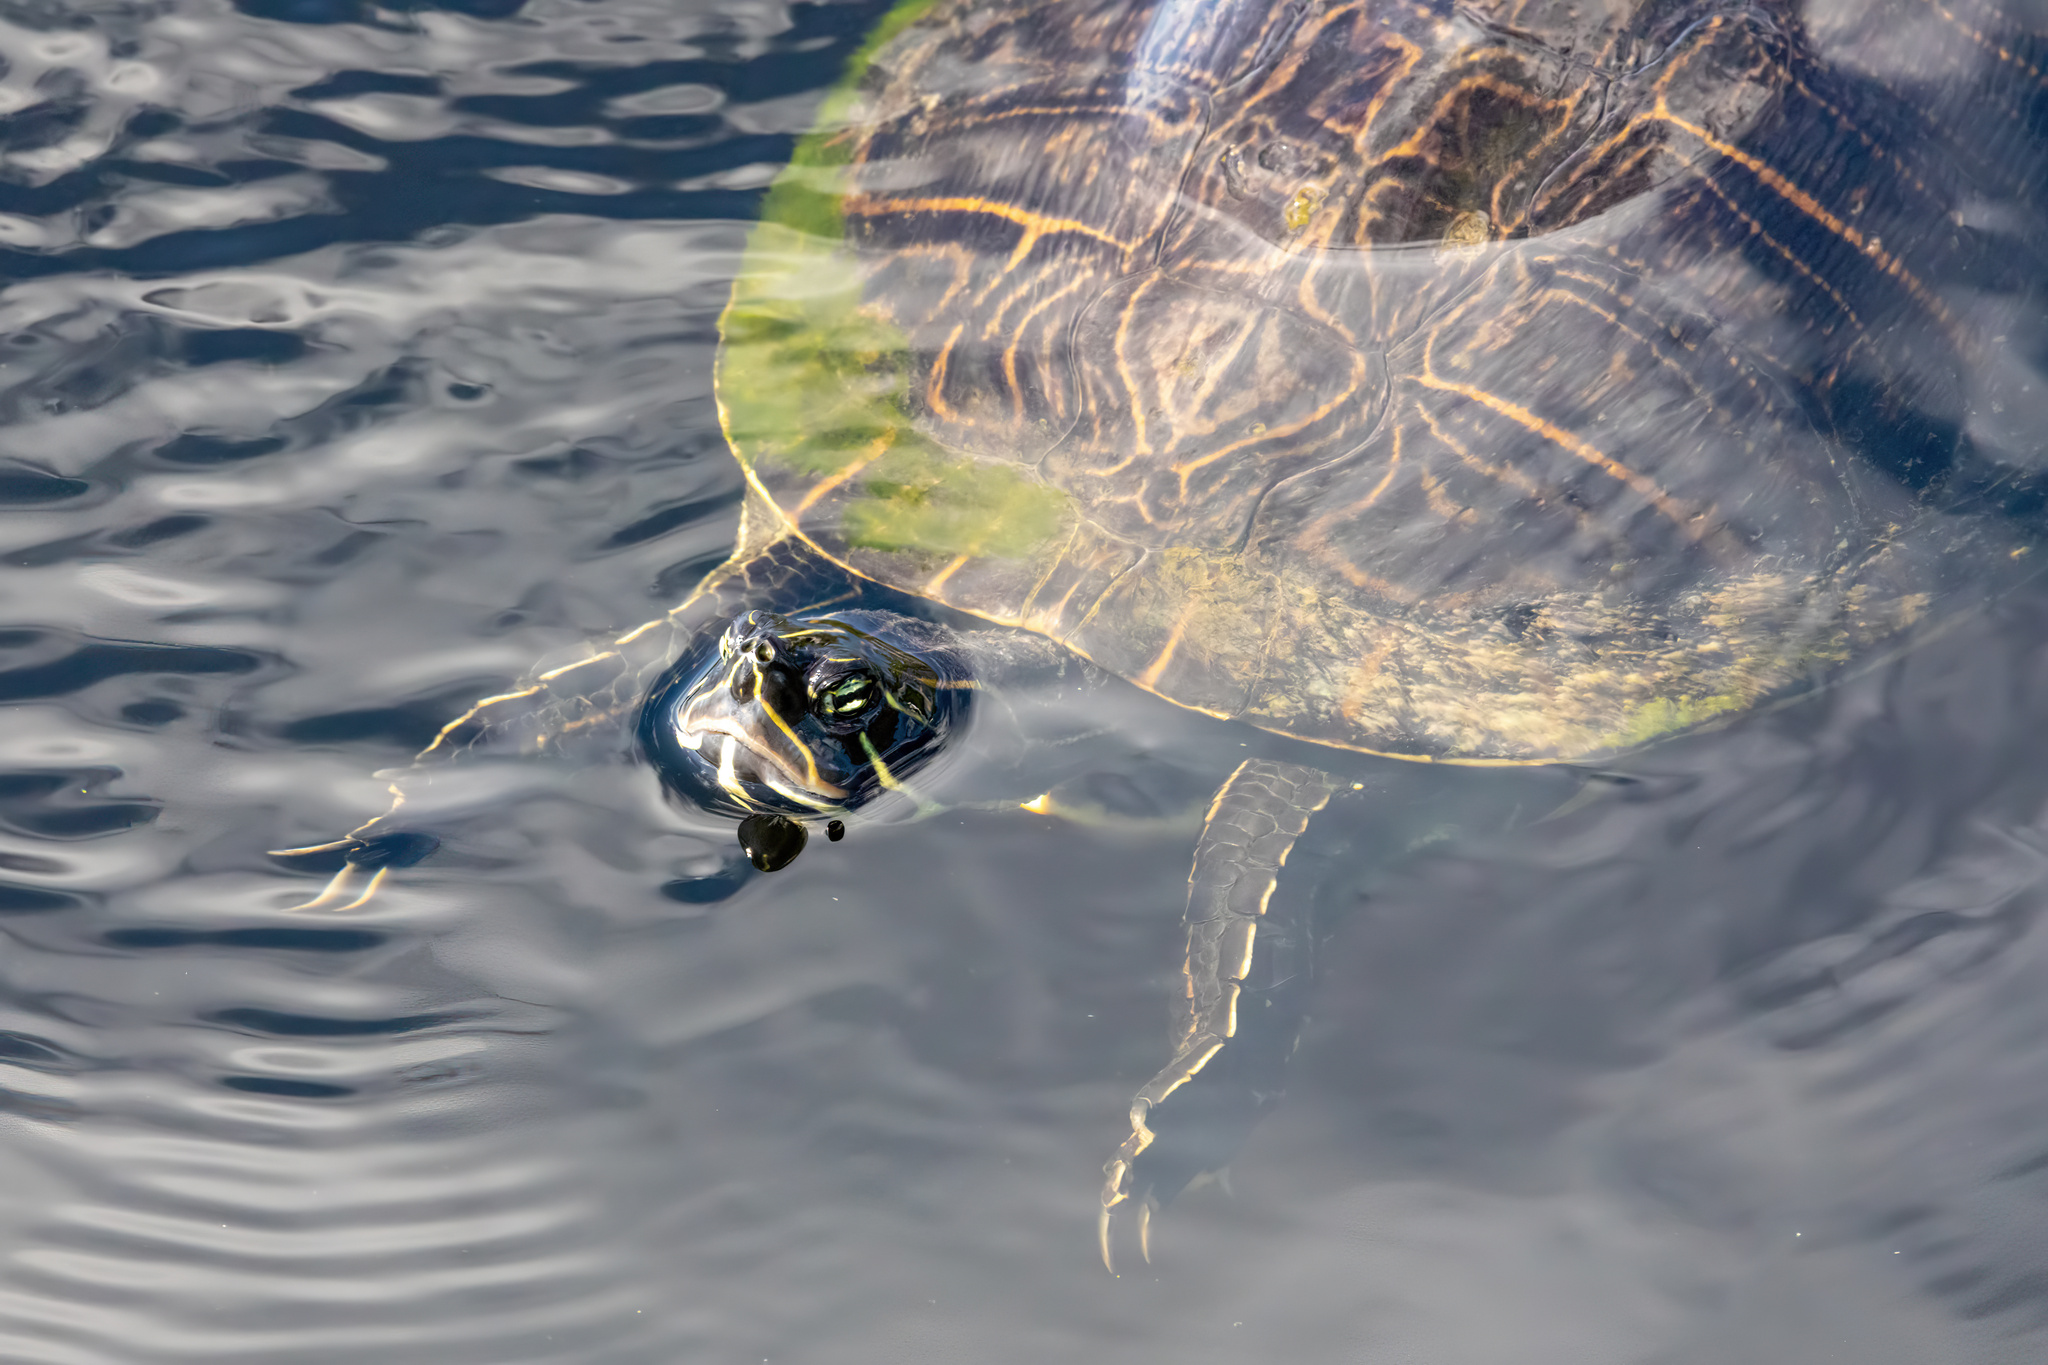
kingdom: Animalia
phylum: Chordata
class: Testudines
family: Emydidae
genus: Pseudemys
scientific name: Pseudemys peninsularis
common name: Peninsula cooter
